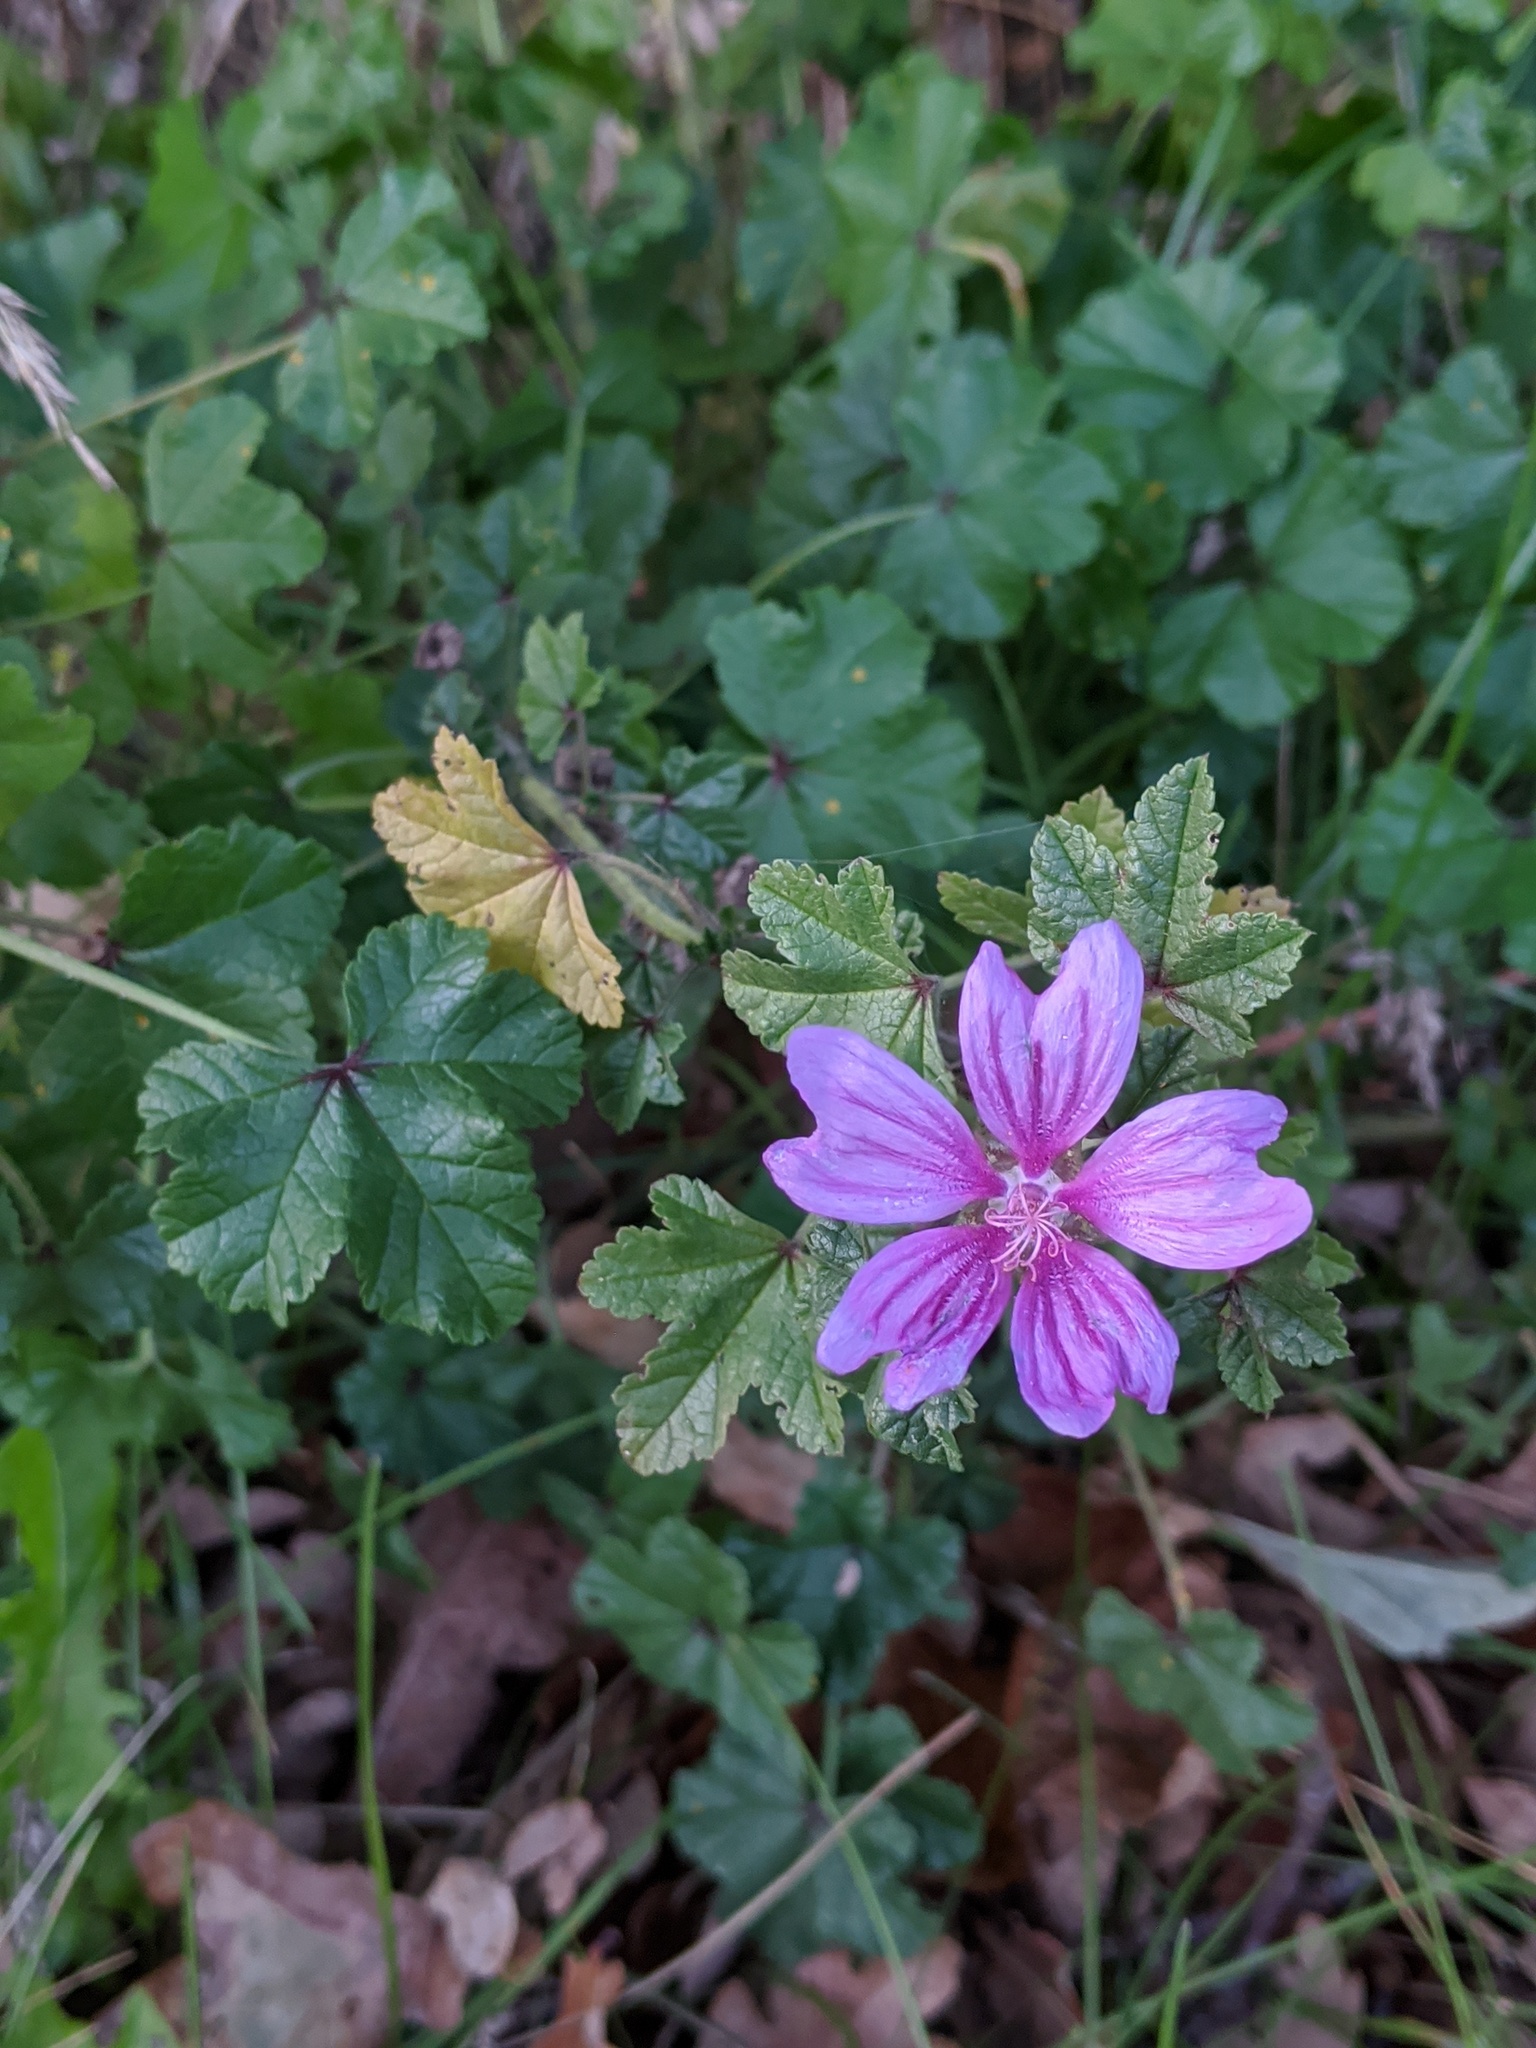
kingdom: Plantae
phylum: Tracheophyta
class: Magnoliopsida
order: Malvales
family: Malvaceae
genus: Malva
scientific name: Malva sylvestris
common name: Common mallow
